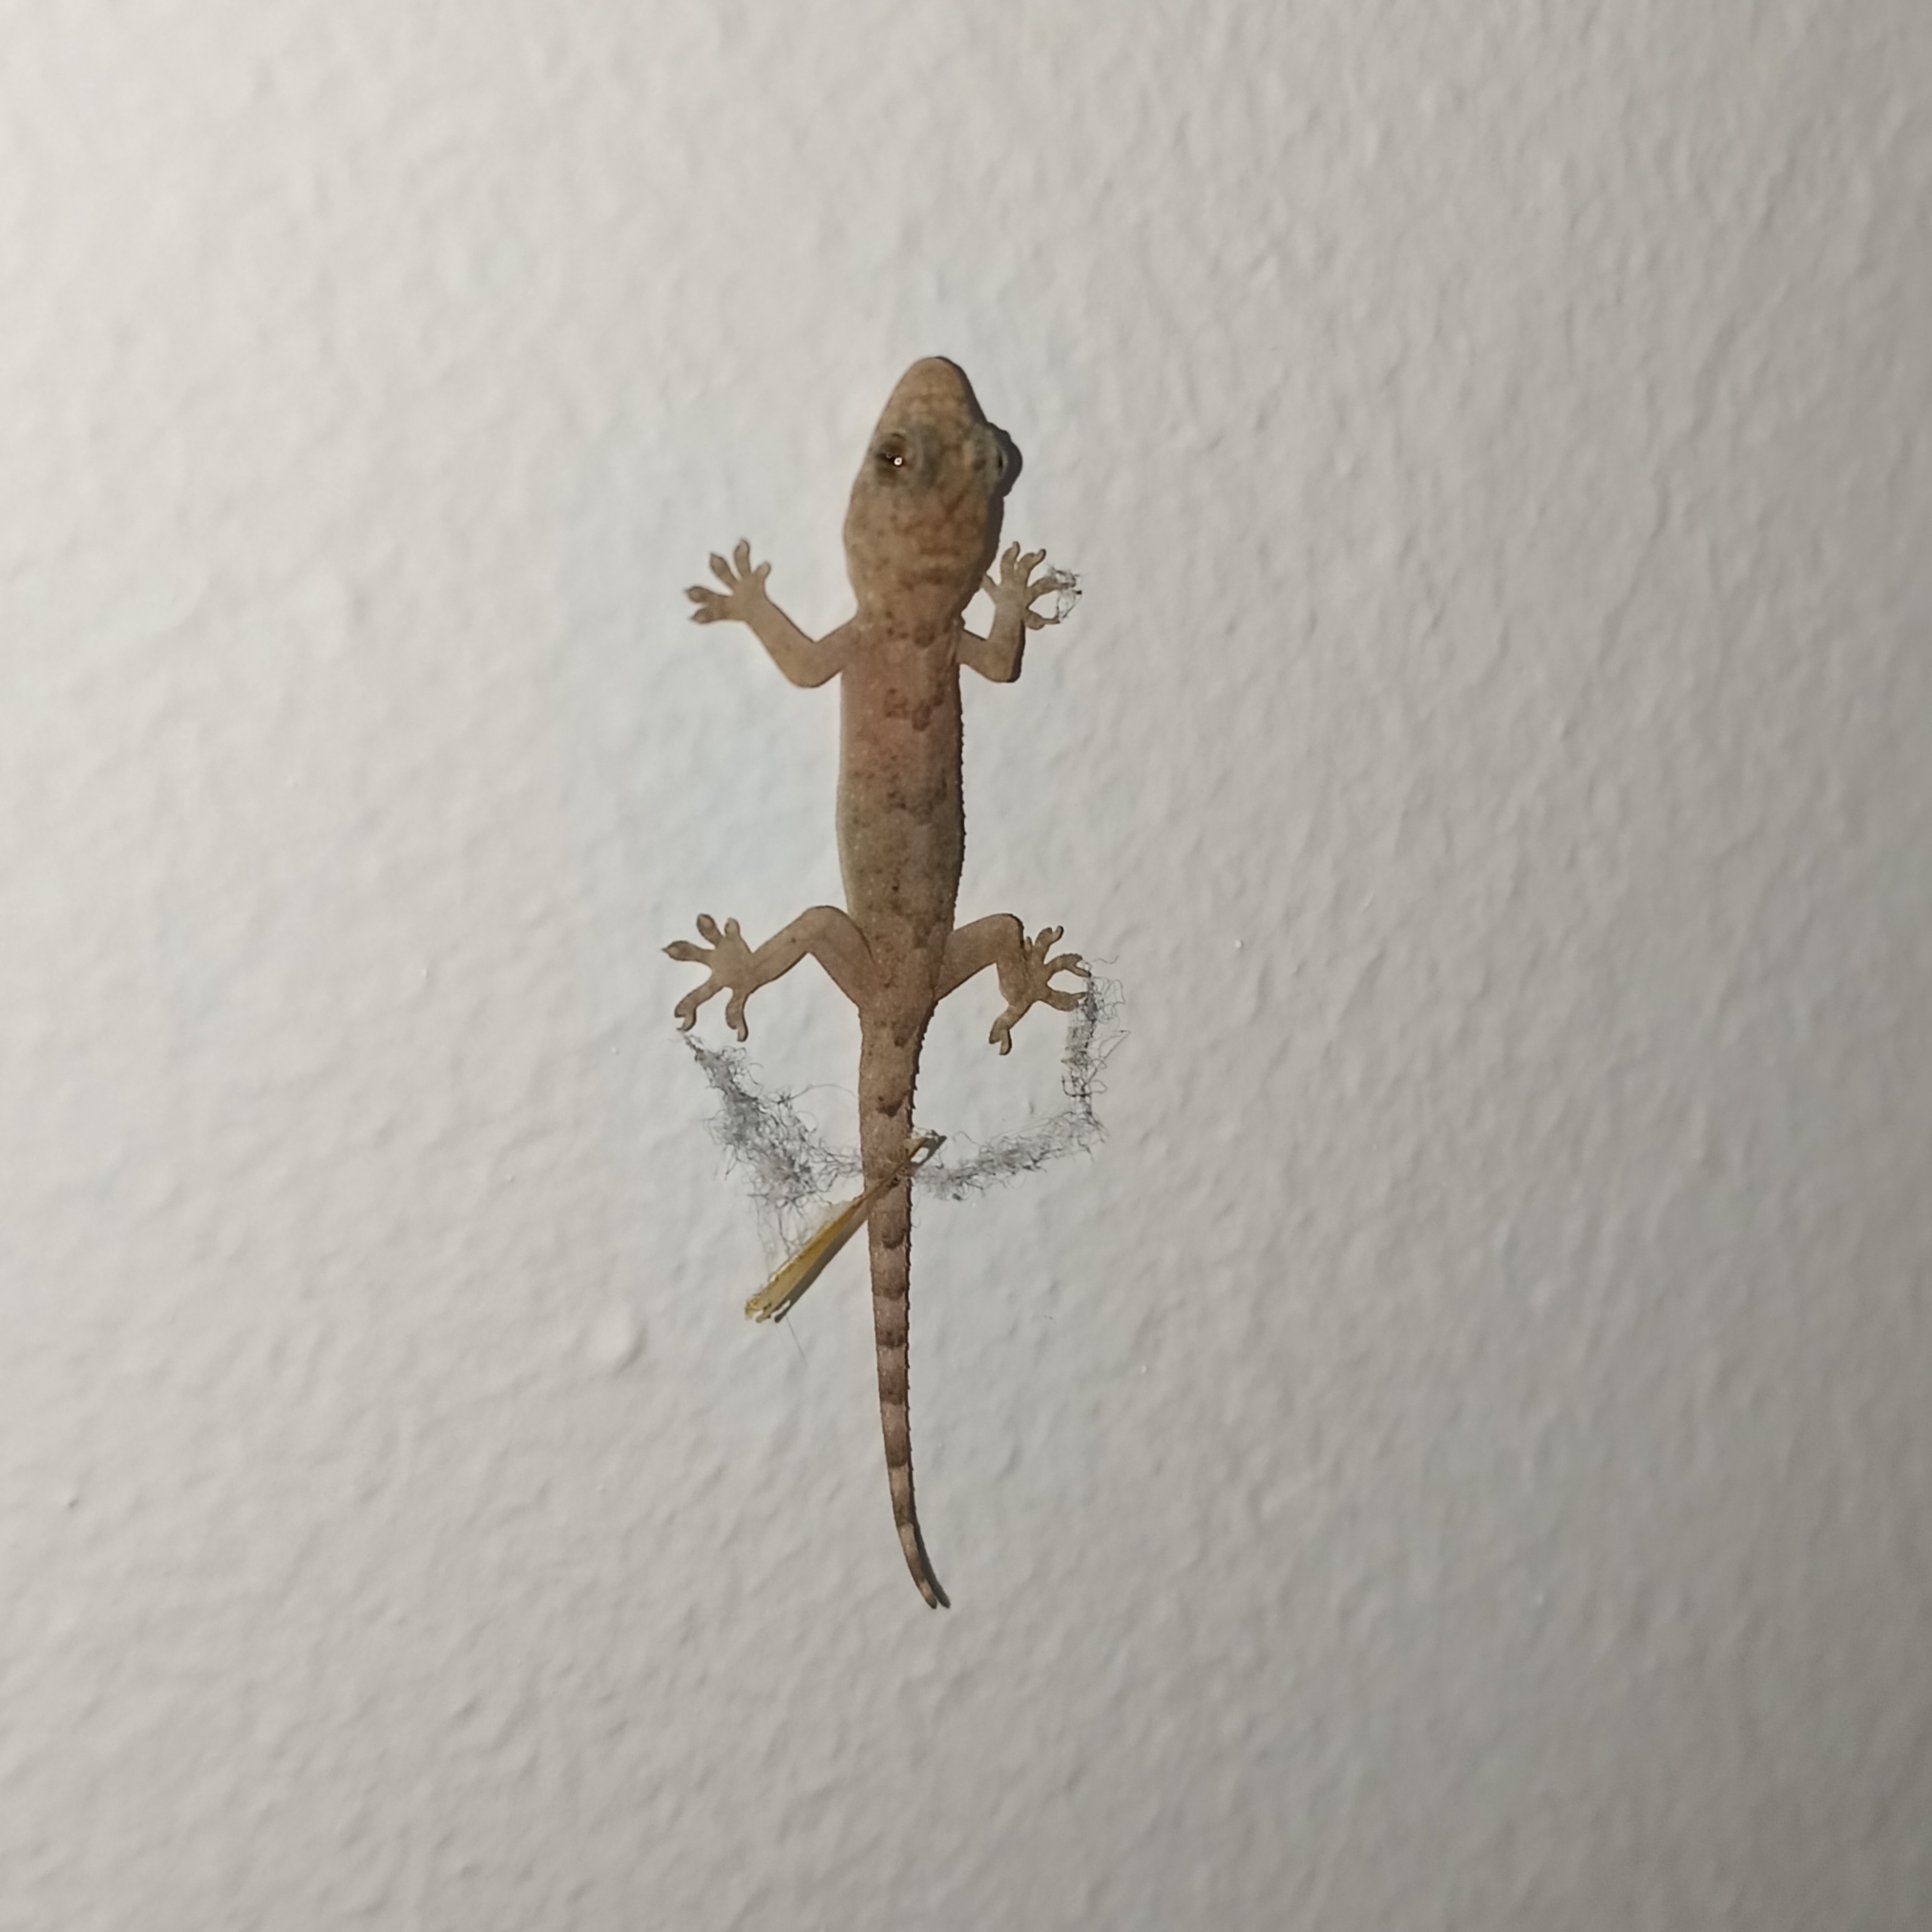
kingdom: Animalia
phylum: Chordata
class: Squamata
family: Gekkonidae
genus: Hemidactylus
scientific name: Hemidactylus mabouia
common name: House gecko
